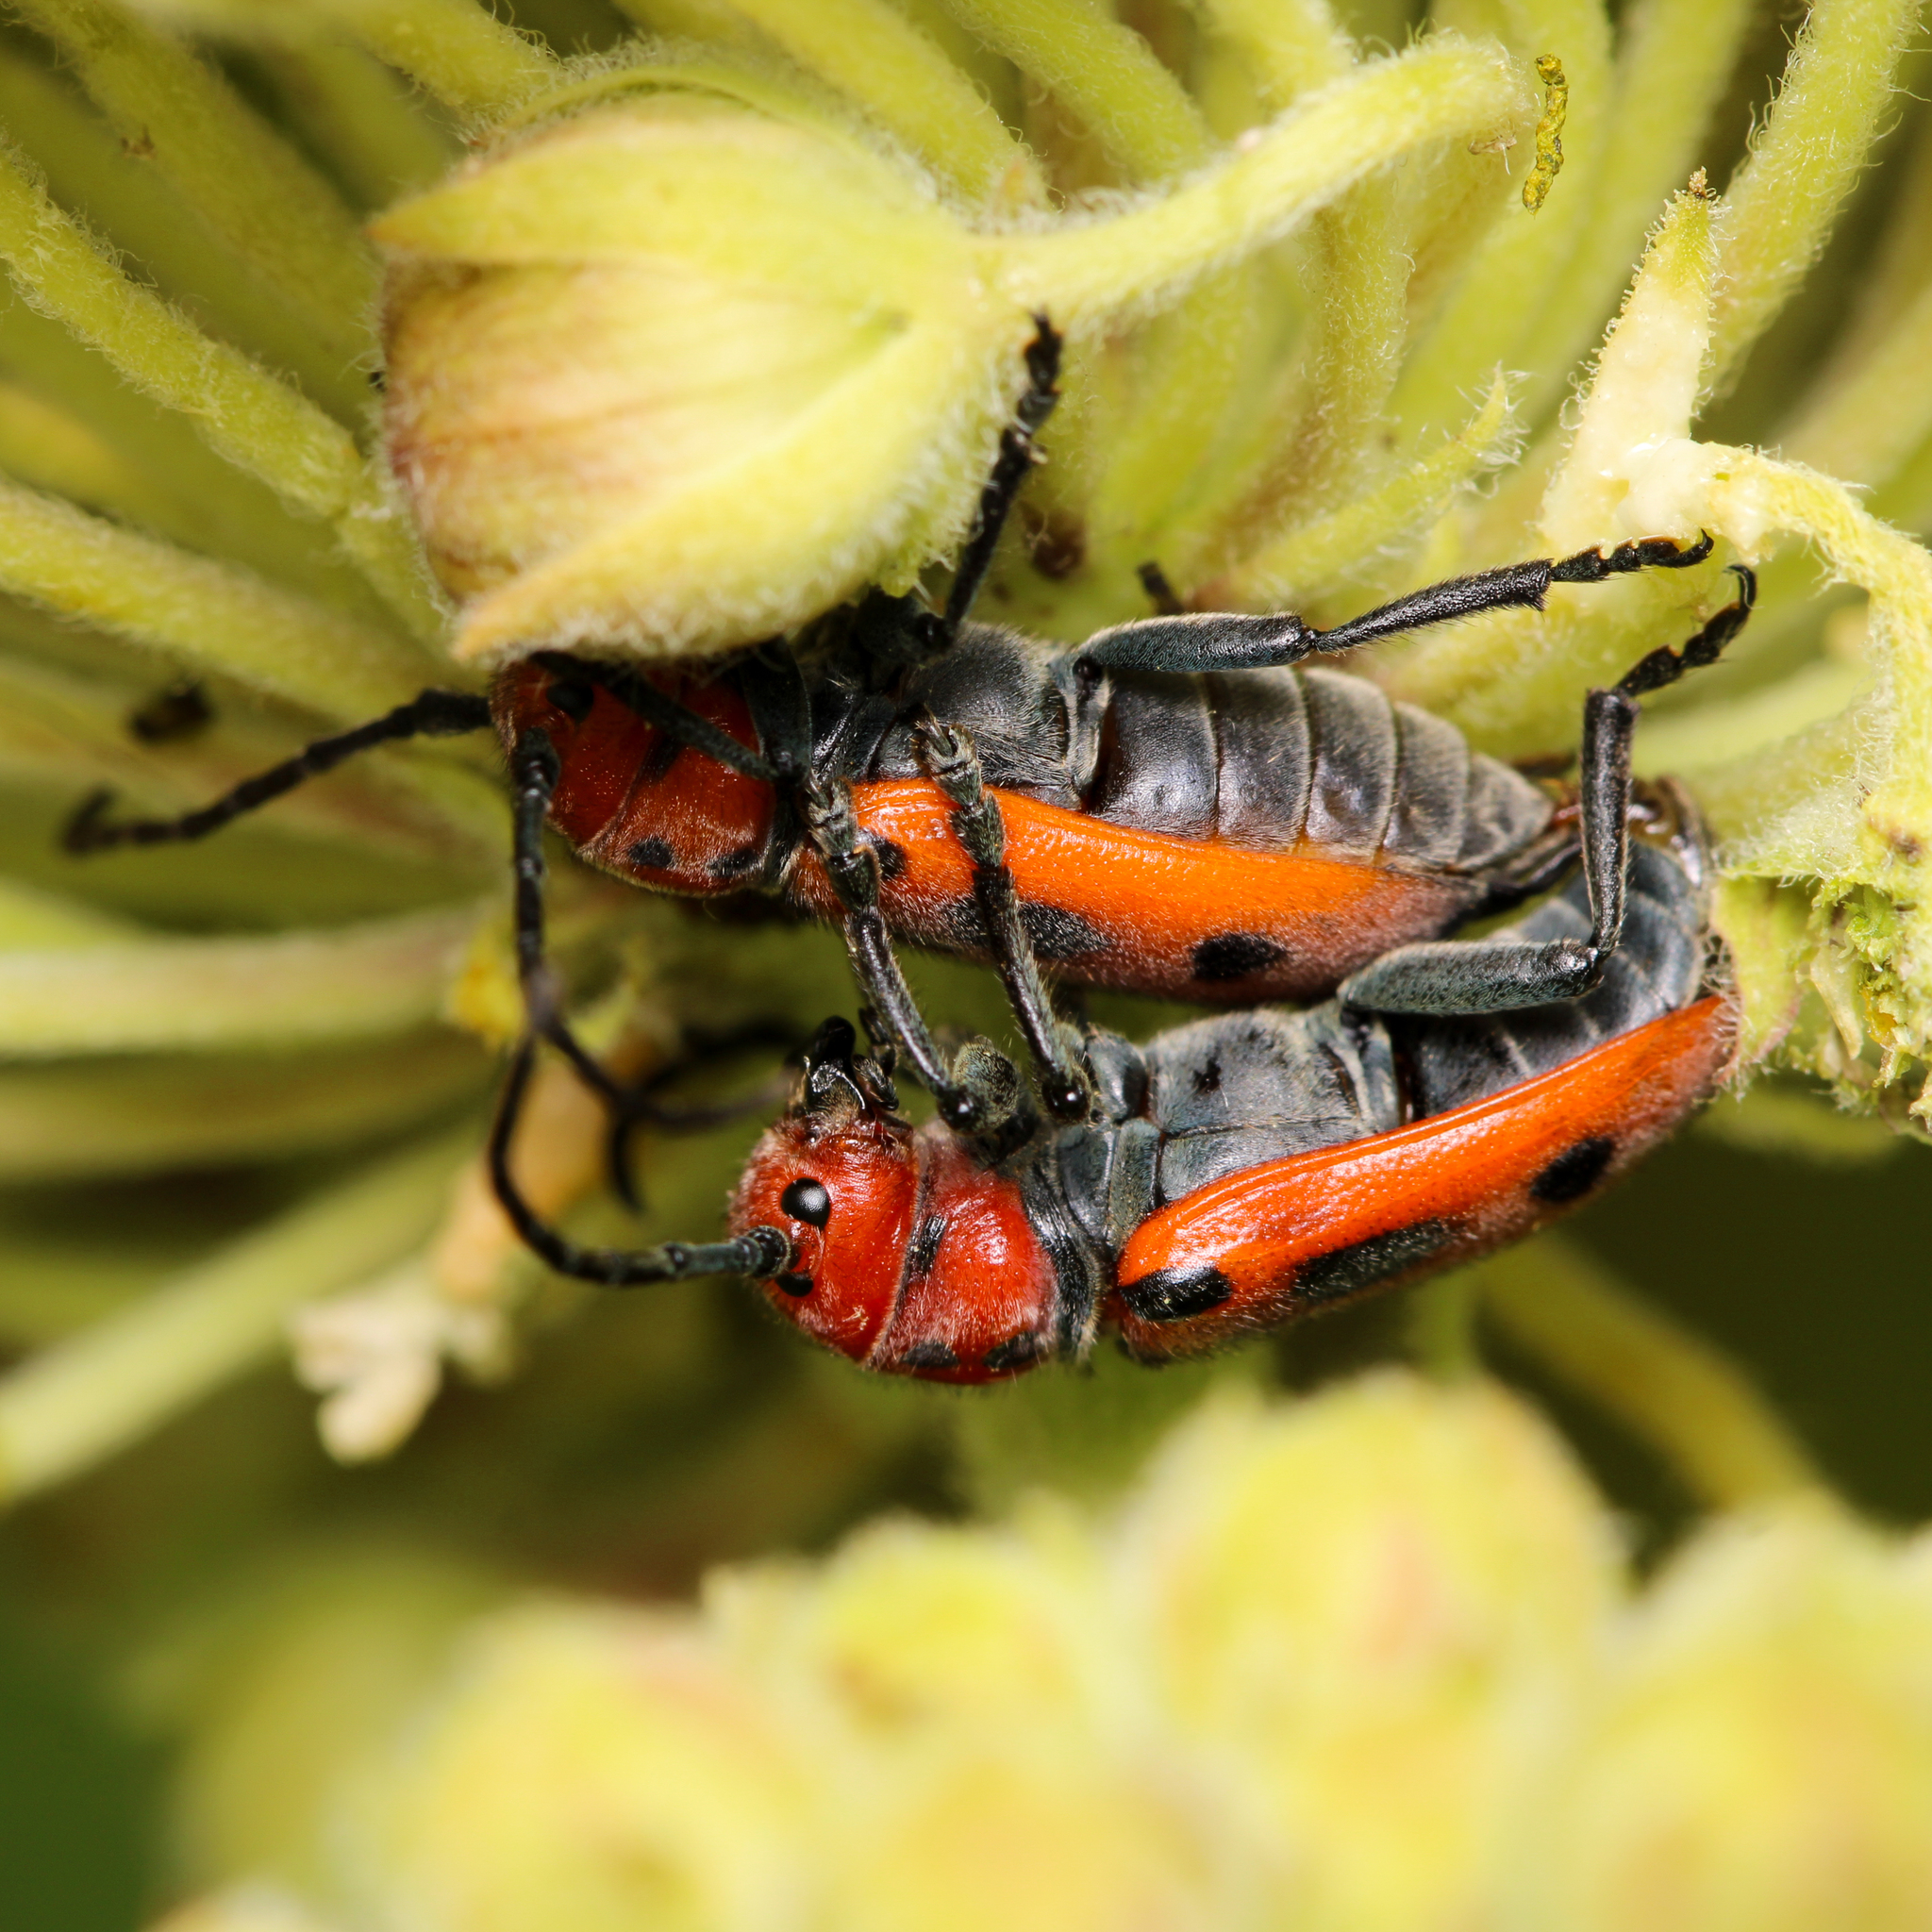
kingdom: Animalia
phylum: Arthropoda
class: Insecta
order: Coleoptera
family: Cerambycidae
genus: Tetraopes
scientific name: Tetraopes tetrophthalmus
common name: Red milkweed beetle
